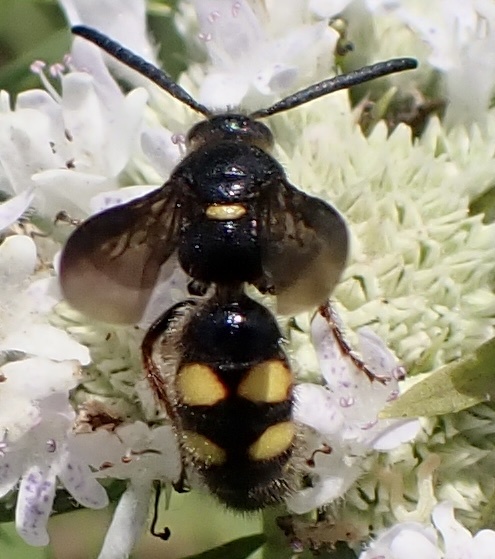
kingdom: Animalia
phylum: Arthropoda
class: Insecta
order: Hymenoptera
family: Scoliidae
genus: Scolia
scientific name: Scolia nobilitata
